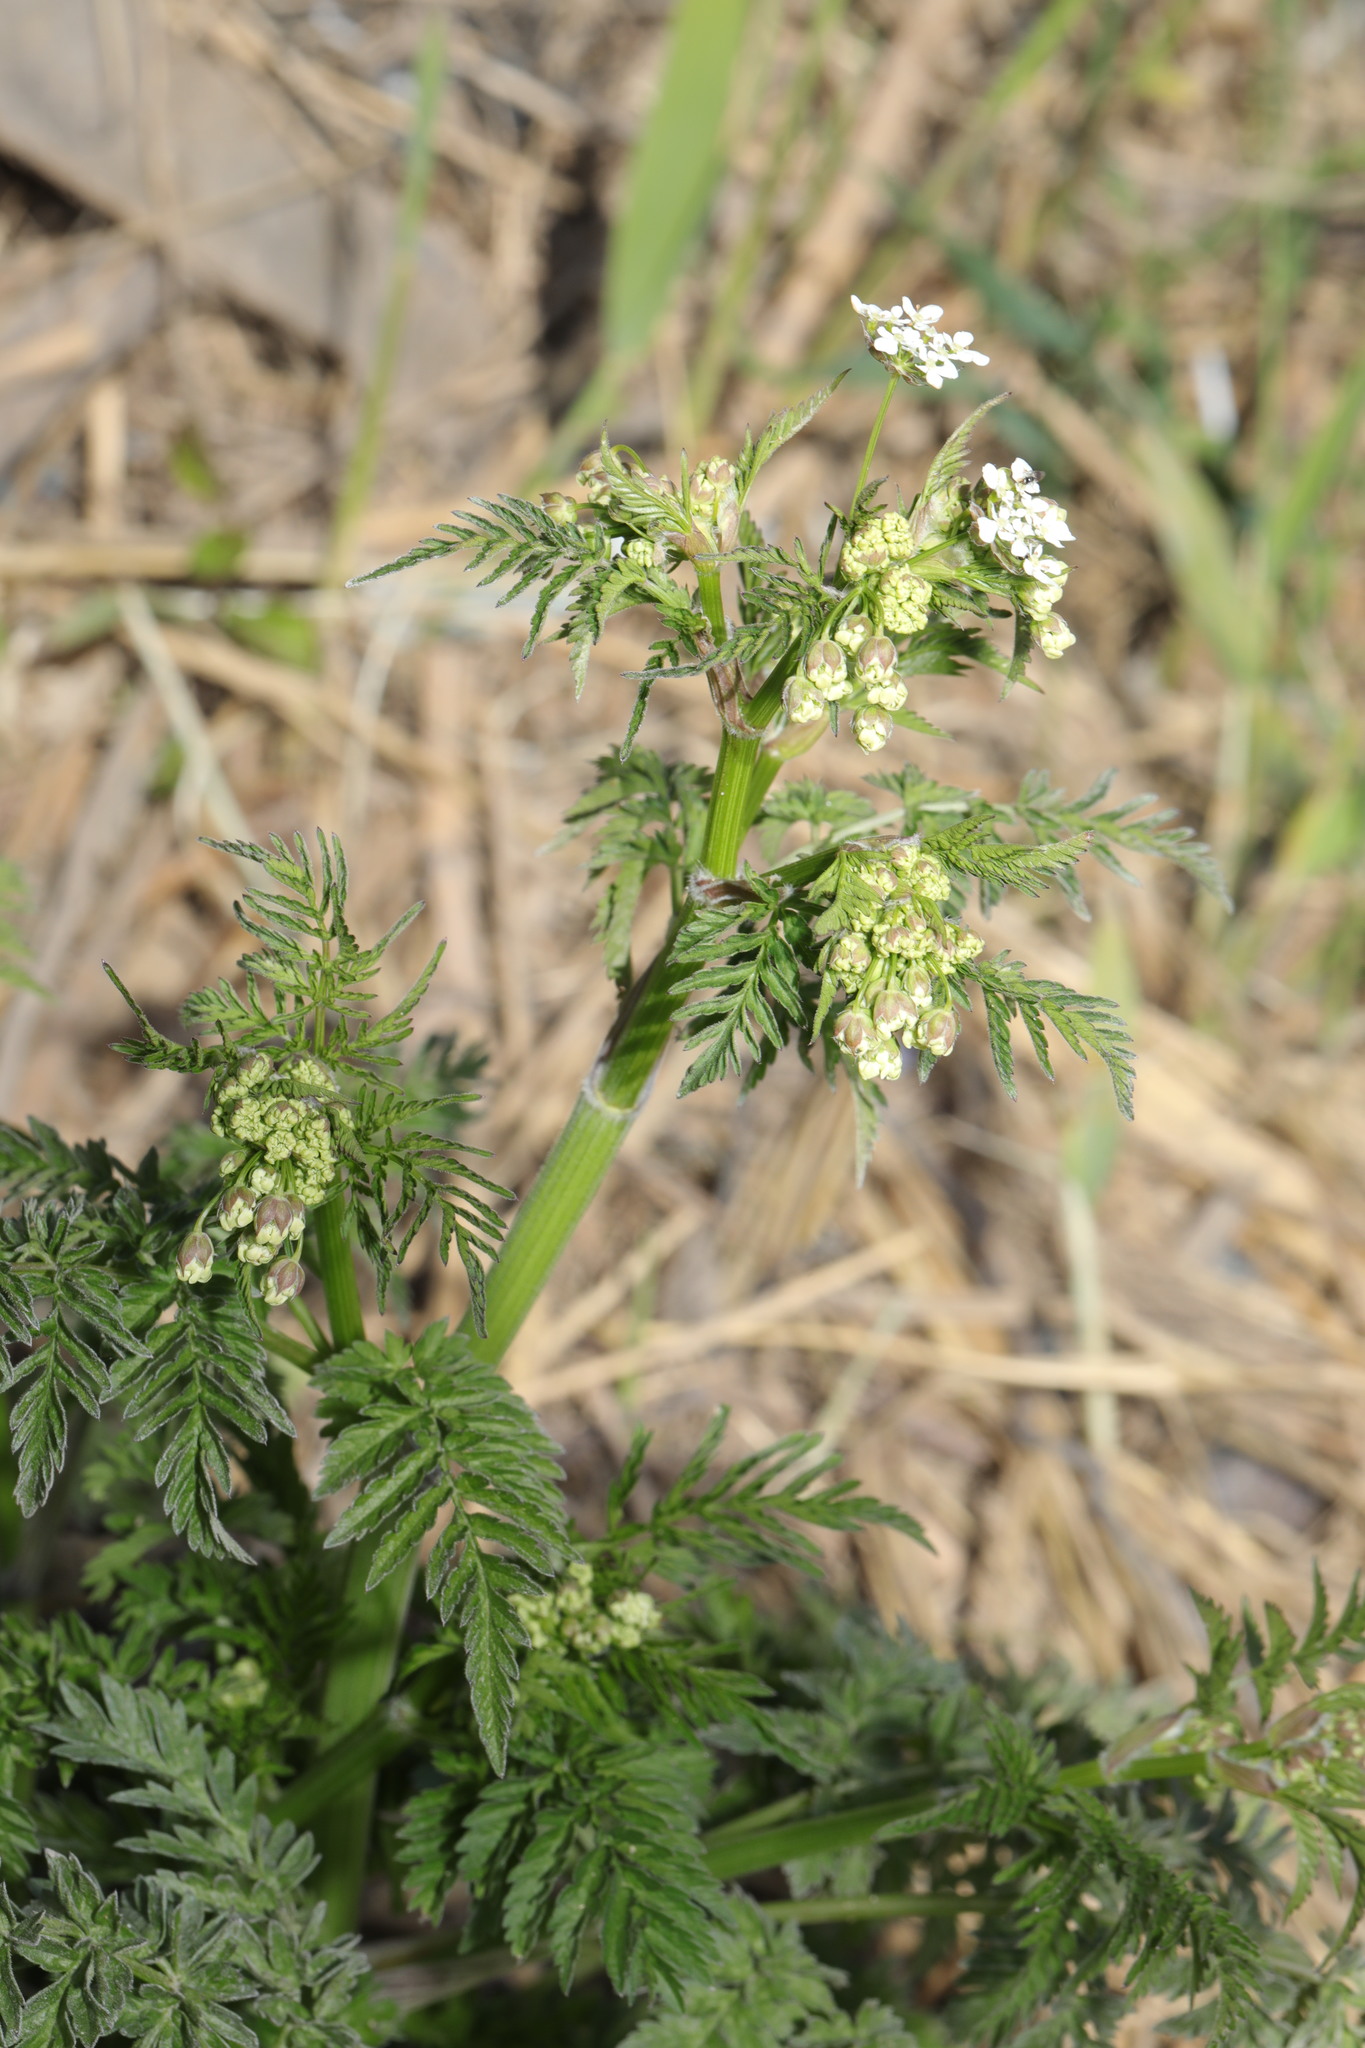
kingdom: Plantae
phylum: Tracheophyta
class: Magnoliopsida
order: Apiales
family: Apiaceae
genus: Anthriscus
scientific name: Anthriscus sylvestris
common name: Cow parsley
